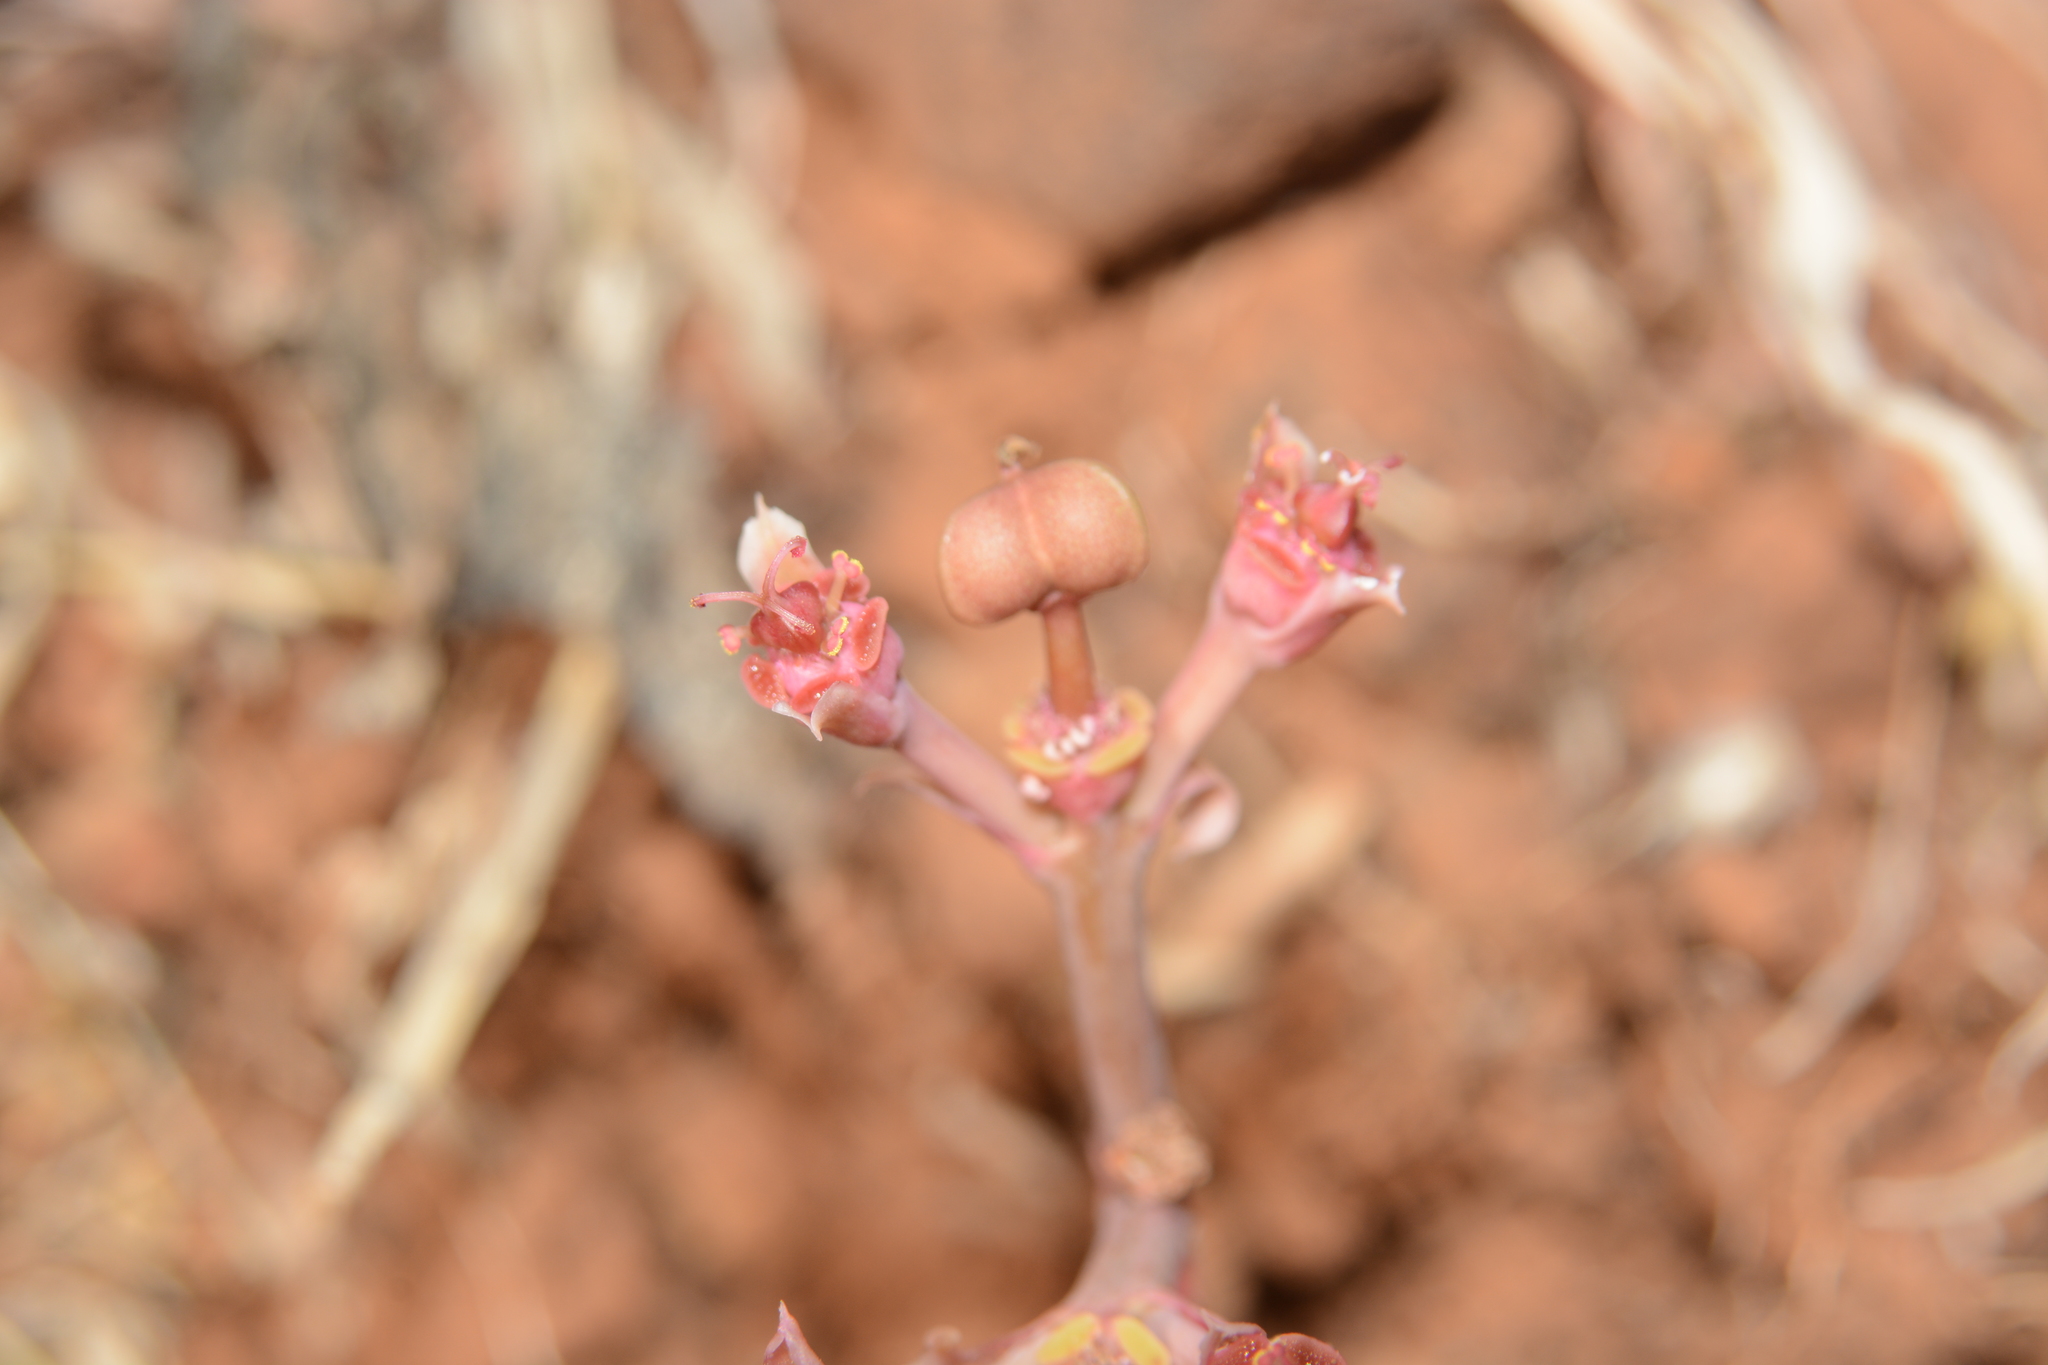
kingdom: Plantae
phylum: Tracheophyta
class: Magnoliopsida
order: Malpighiales
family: Euphorbiaceae
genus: Euphorbia
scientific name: Euphorbia khandallensis
